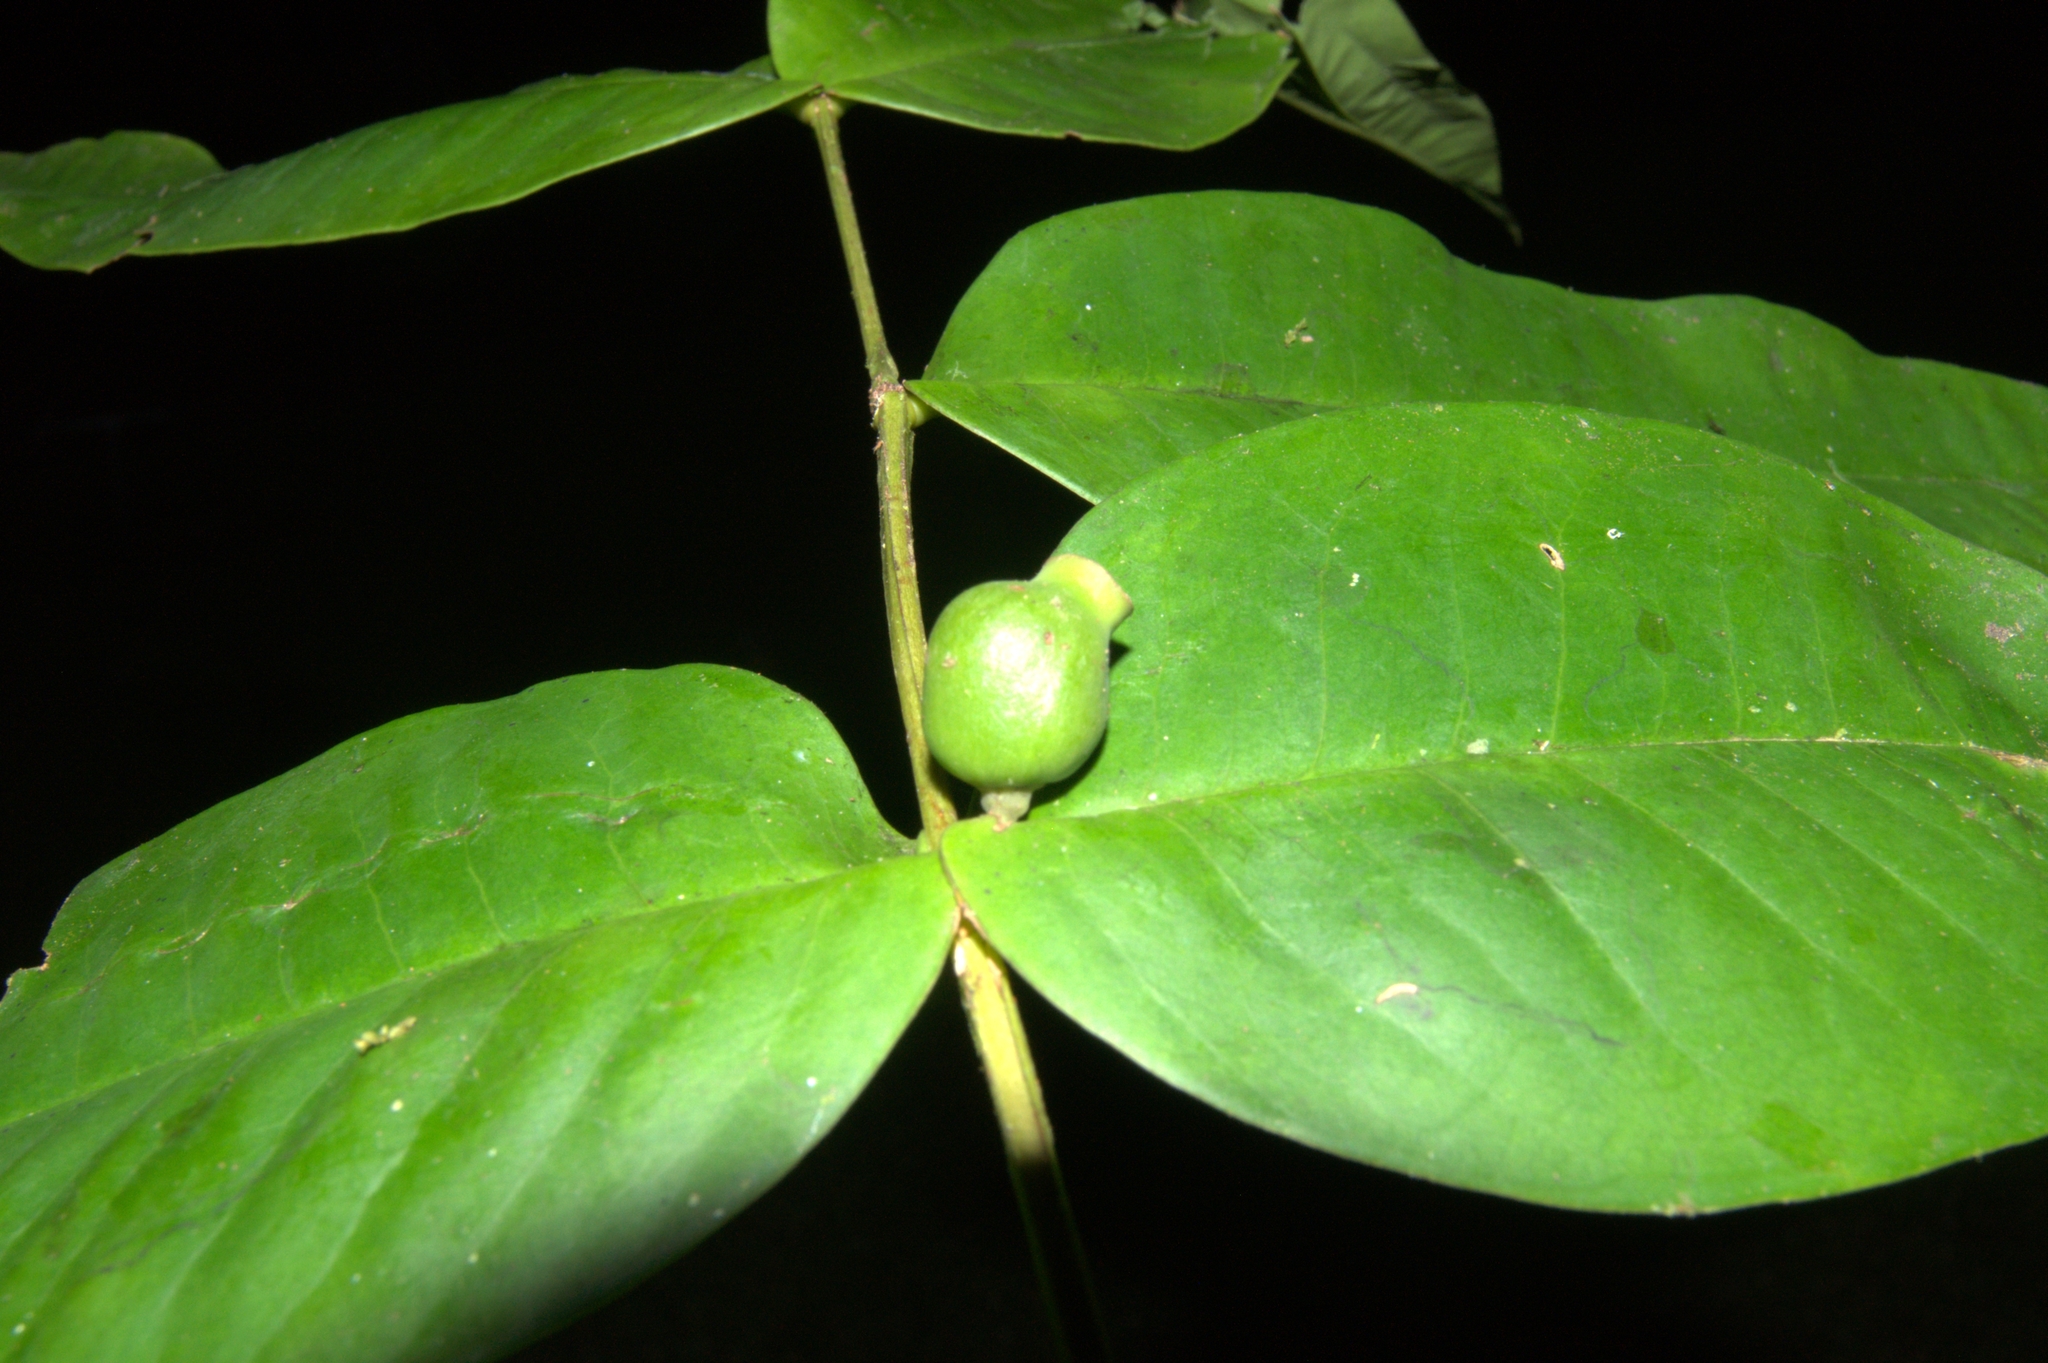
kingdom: Plantae
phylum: Tracheophyta
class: Magnoliopsida
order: Myrtales
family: Melastomataceae
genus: Mouriri
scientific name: Mouriri osaensis
